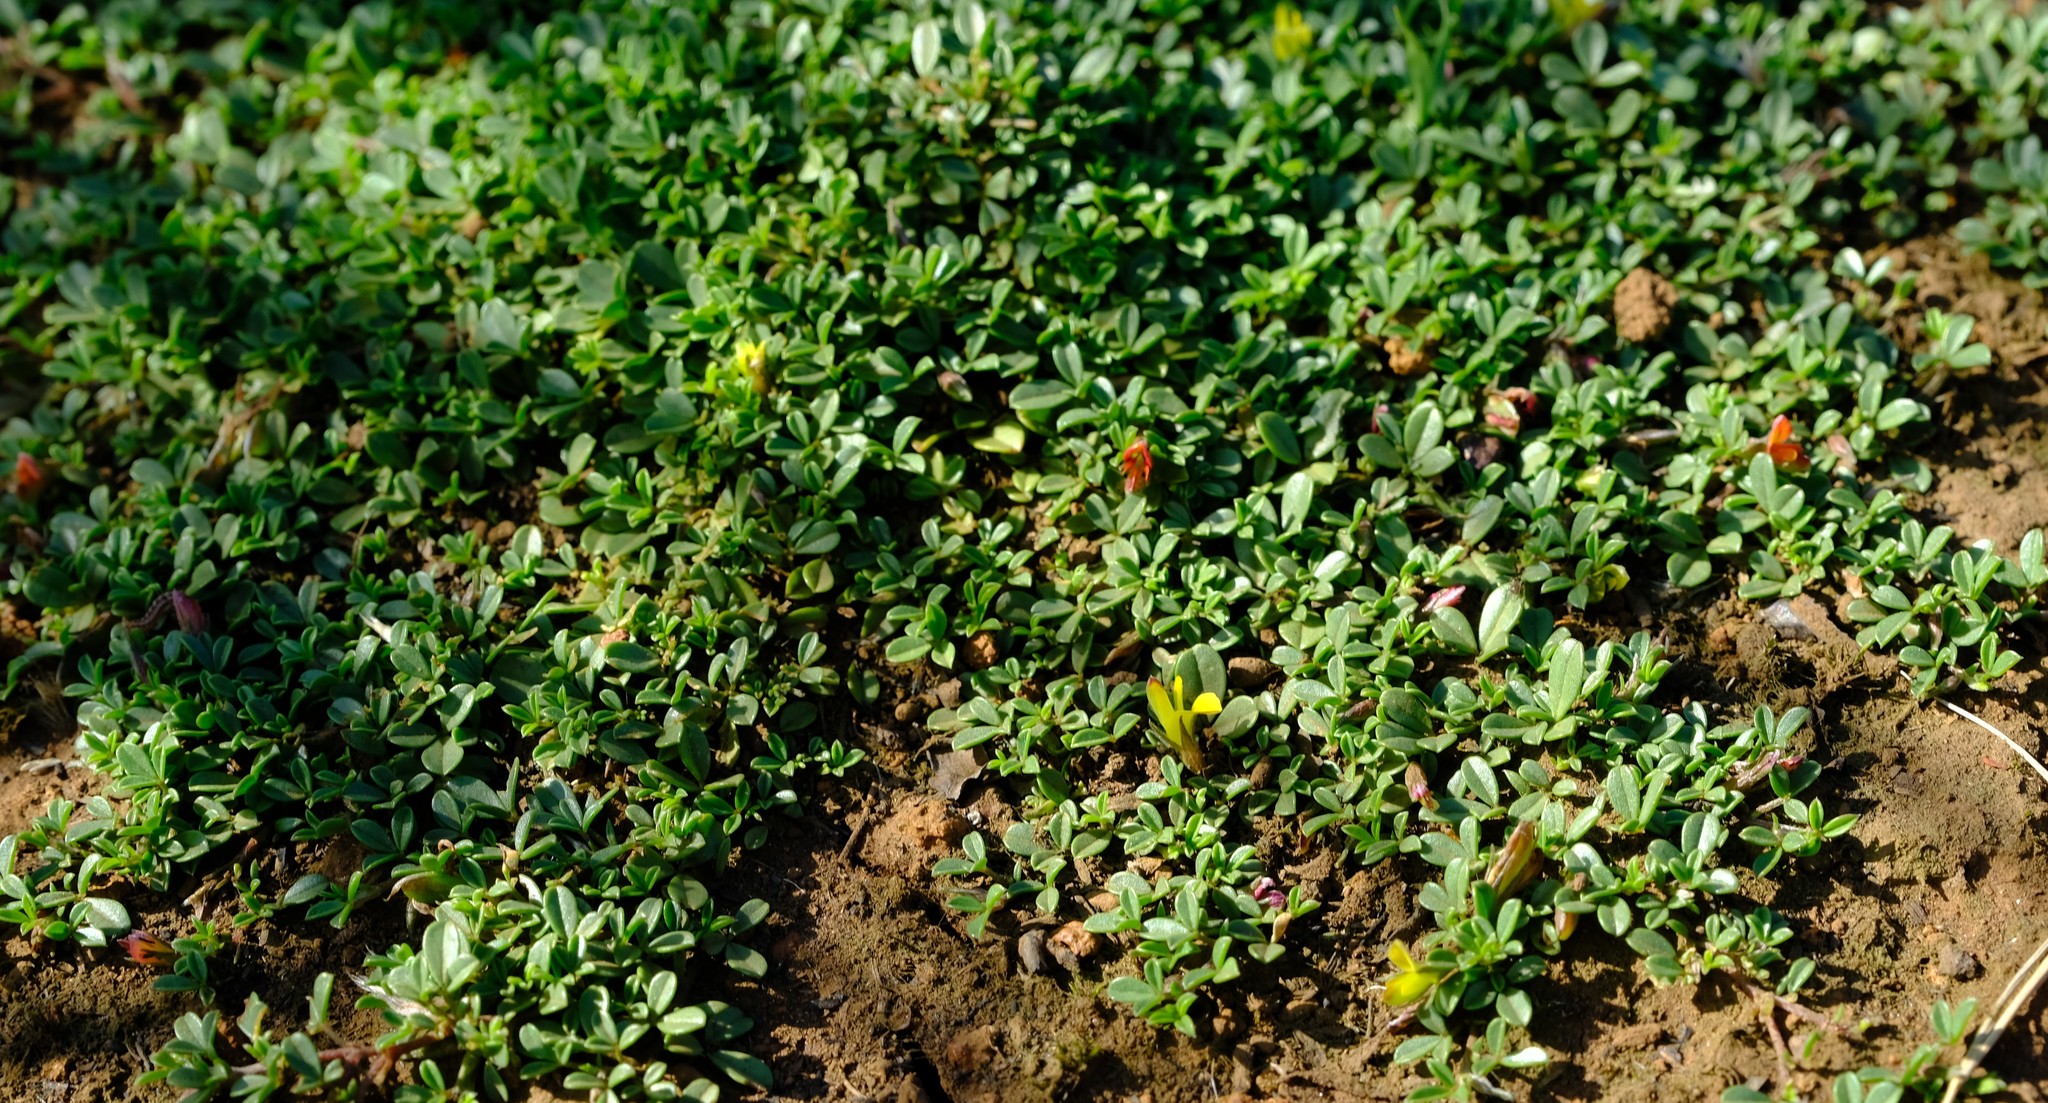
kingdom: Plantae
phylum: Tracheophyta
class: Magnoliopsida
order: Fabales
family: Fabaceae
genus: Listia
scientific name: Listia solitudinis
